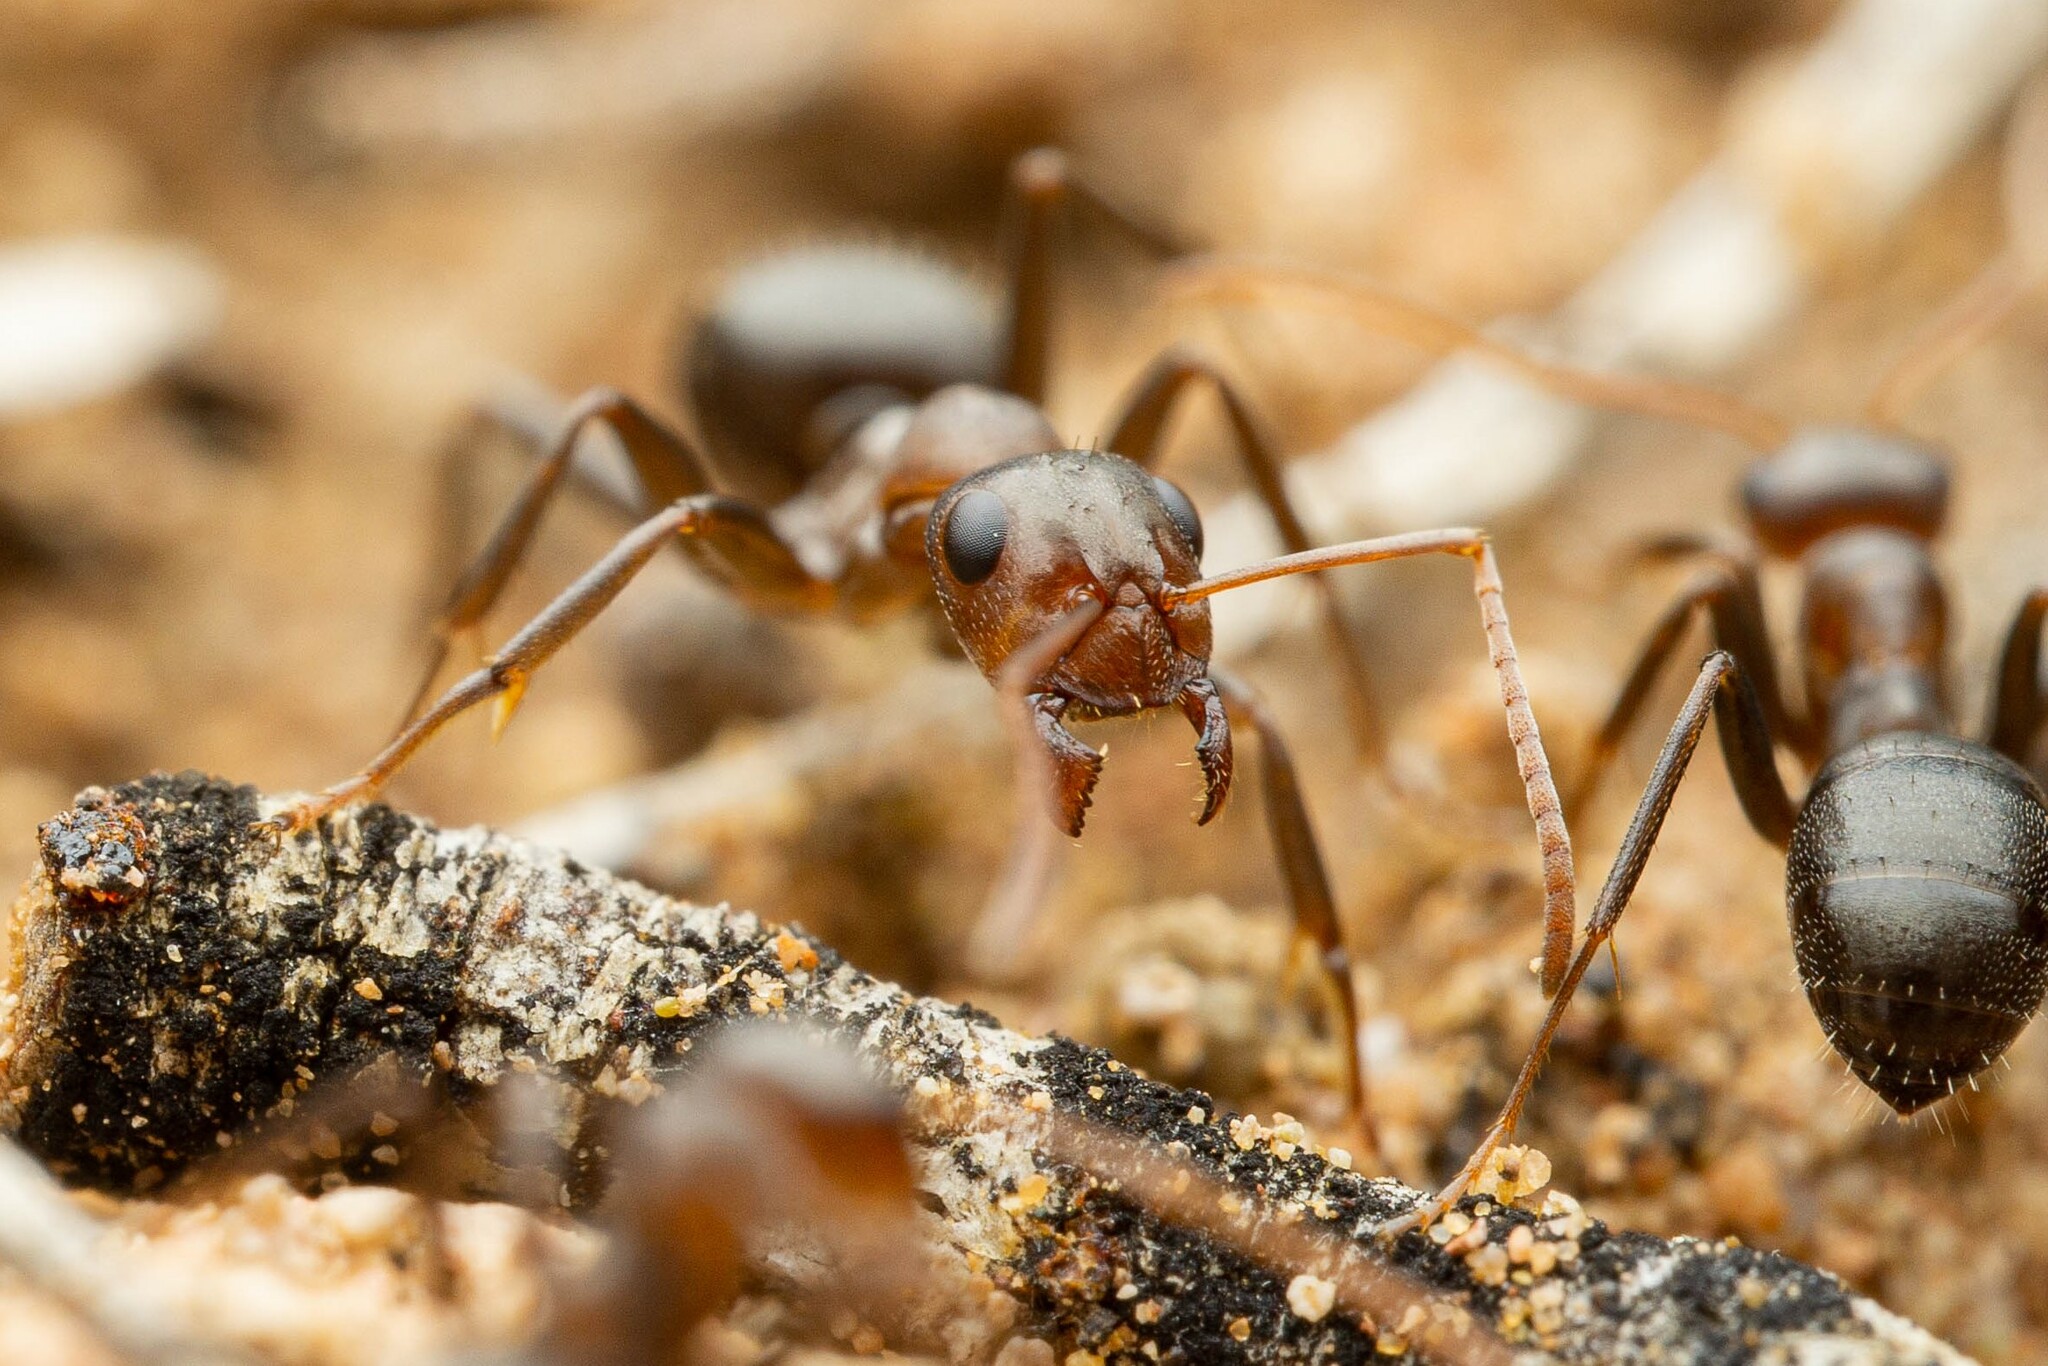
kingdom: Animalia
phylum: Arthropoda
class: Insecta
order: Hymenoptera
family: Formicidae
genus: Formica
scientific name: Formica gnava
